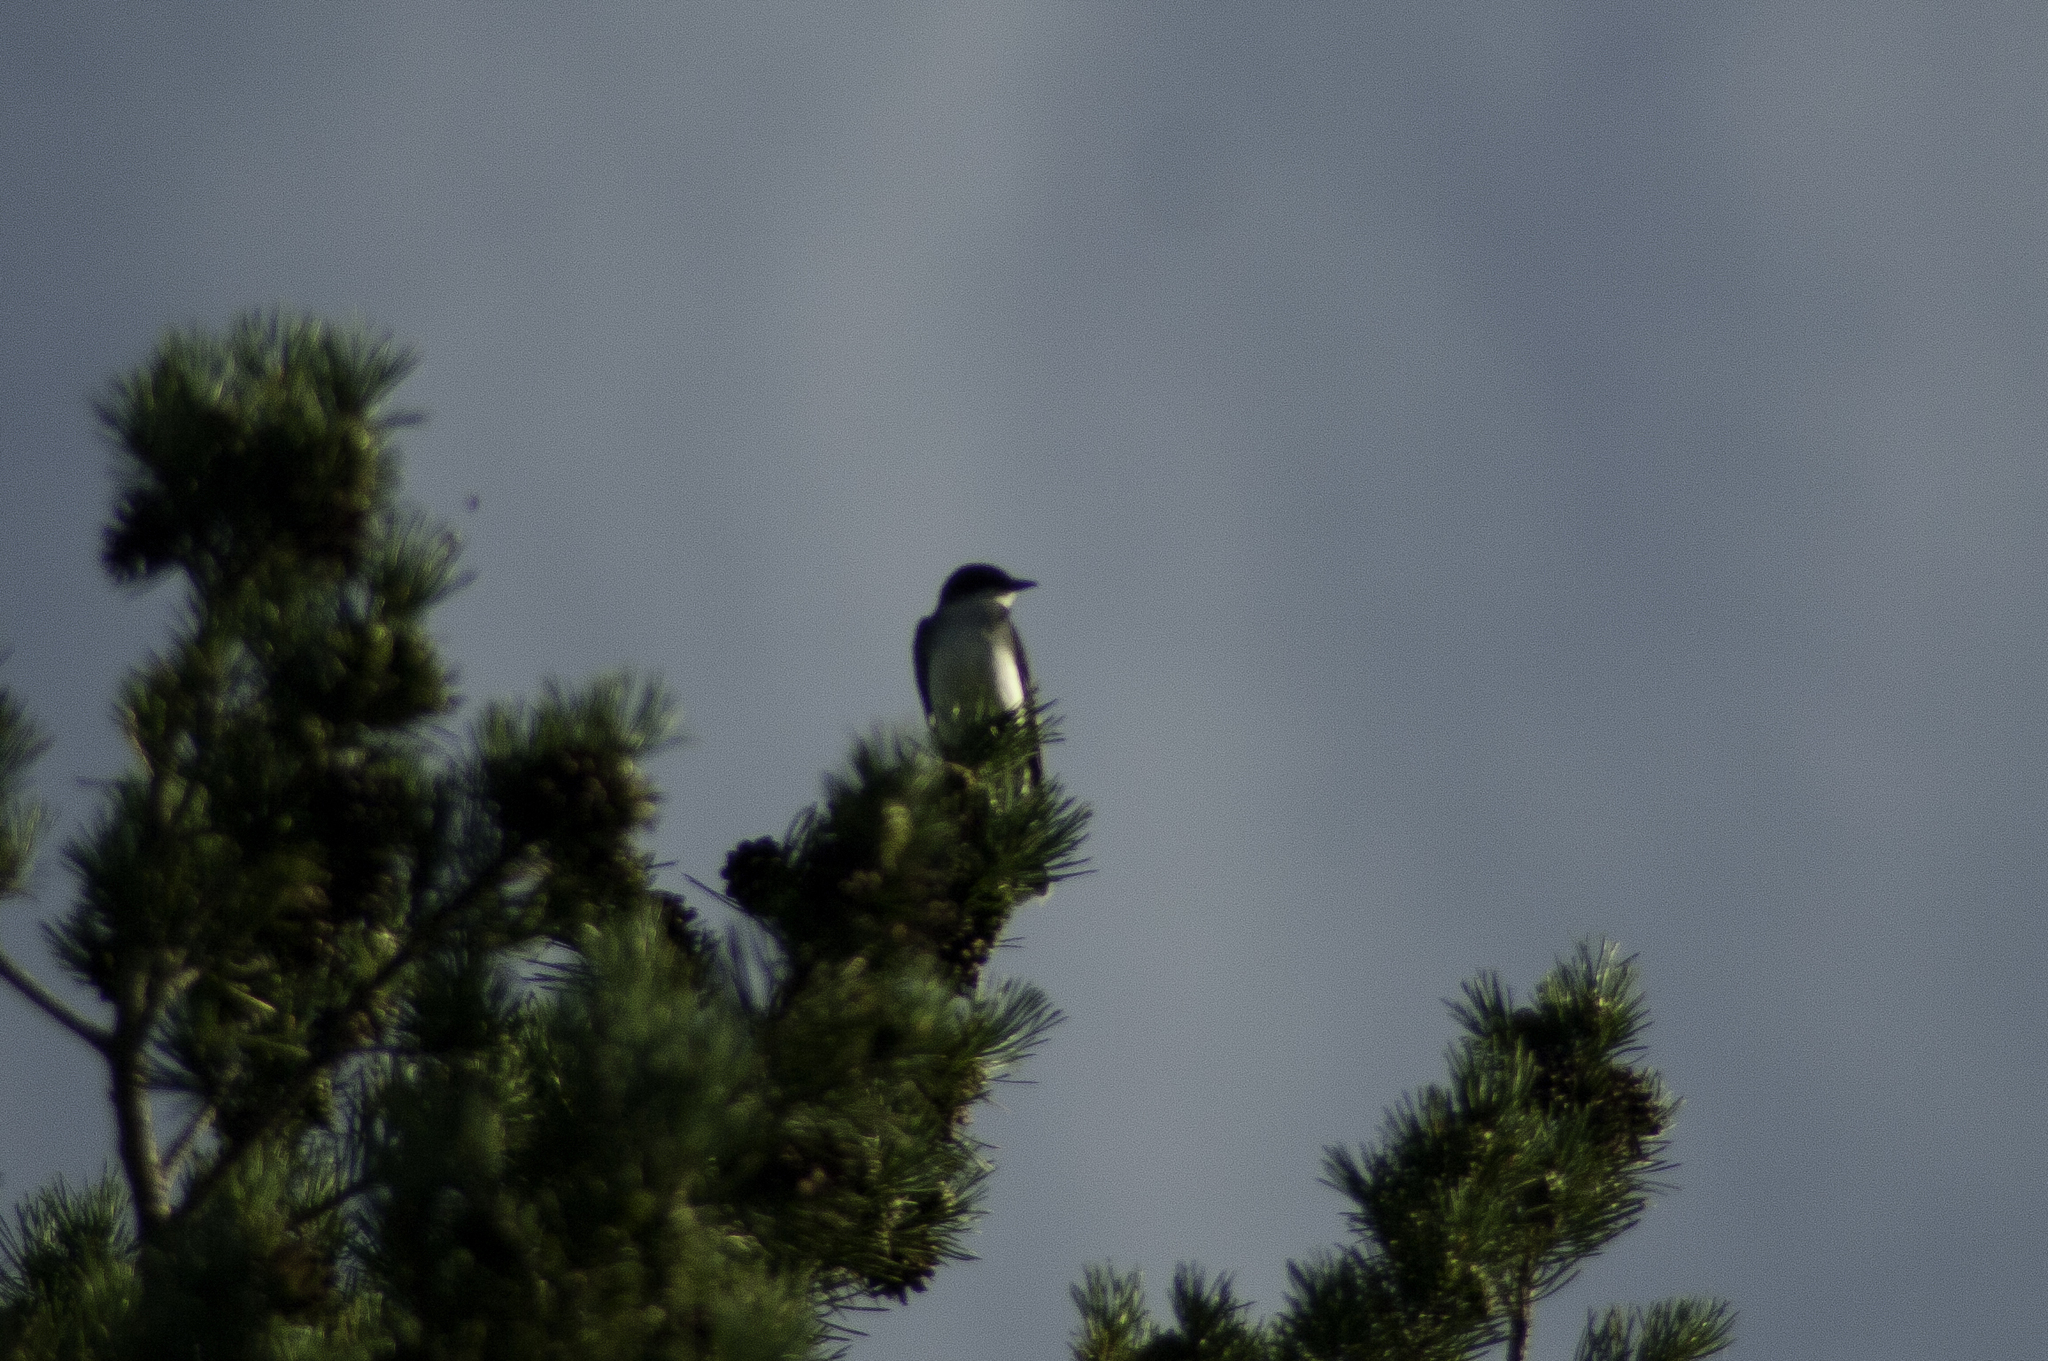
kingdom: Animalia
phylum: Chordata
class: Aves
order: Passeriformes
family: Tyrannidae
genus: Tyrannus
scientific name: Tyrannus tyrannus
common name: Eastern kingbird
